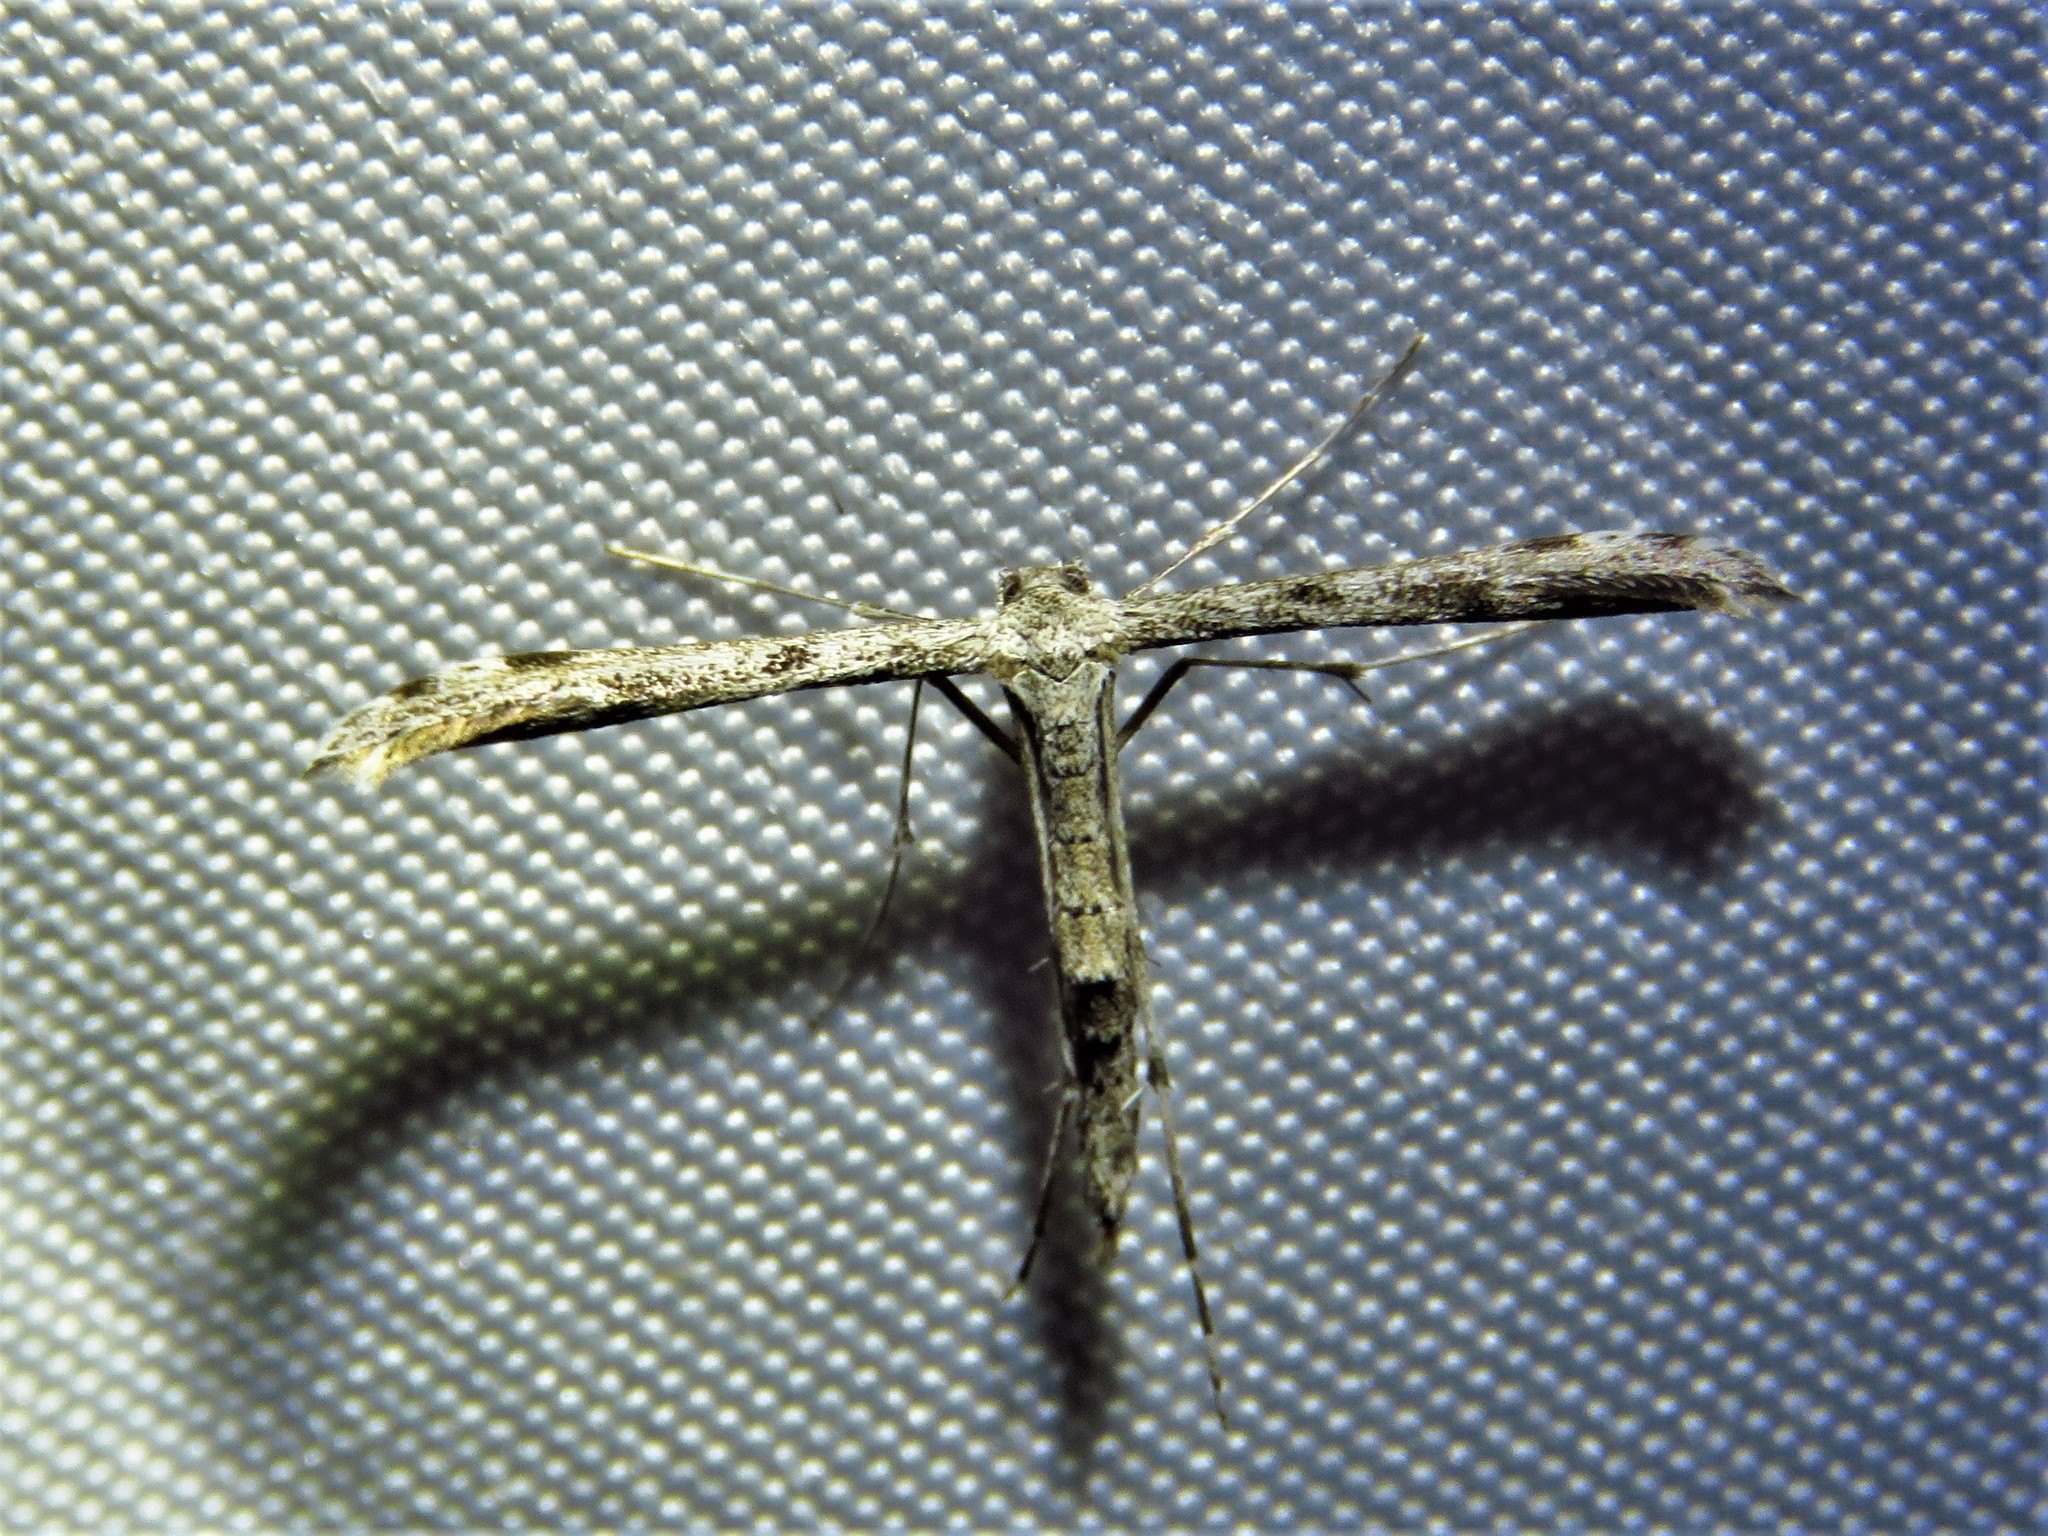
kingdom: Animalia
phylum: Arthropoda
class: Insecta
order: Lepidoptera
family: Pterophoridae
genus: Hellinsia
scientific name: Hellinsia inquinatus
